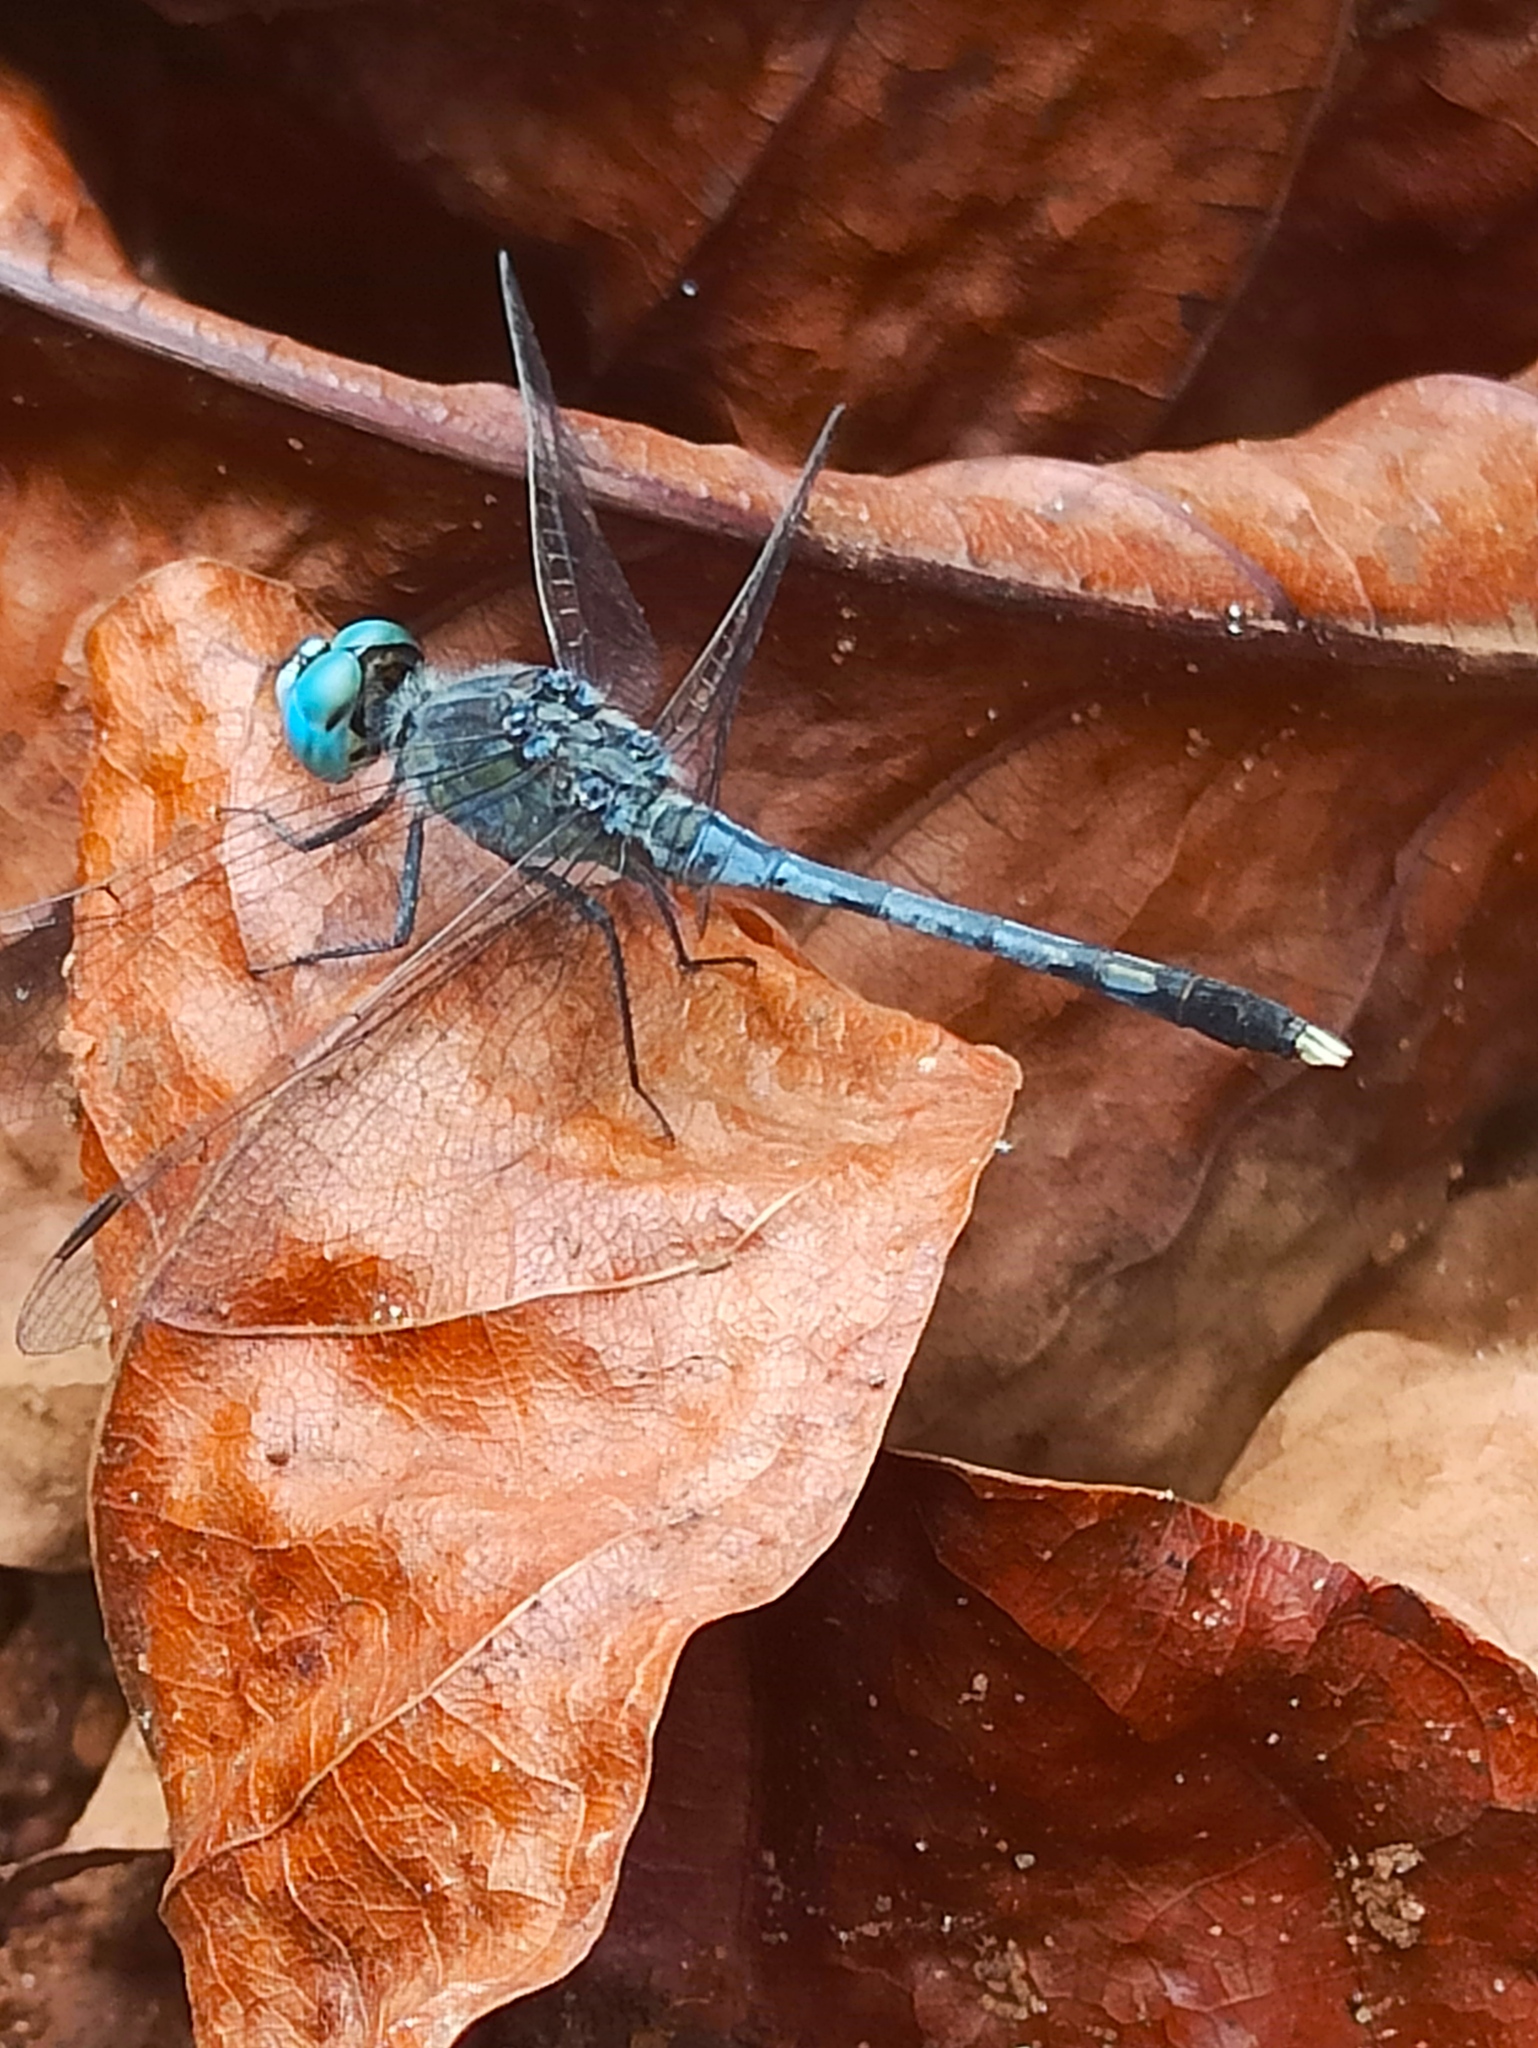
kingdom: Animalia
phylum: Arthropoda
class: Insecta
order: Odonata
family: Libellulidae
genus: Diplacodes
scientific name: Diplacodes trivialis
